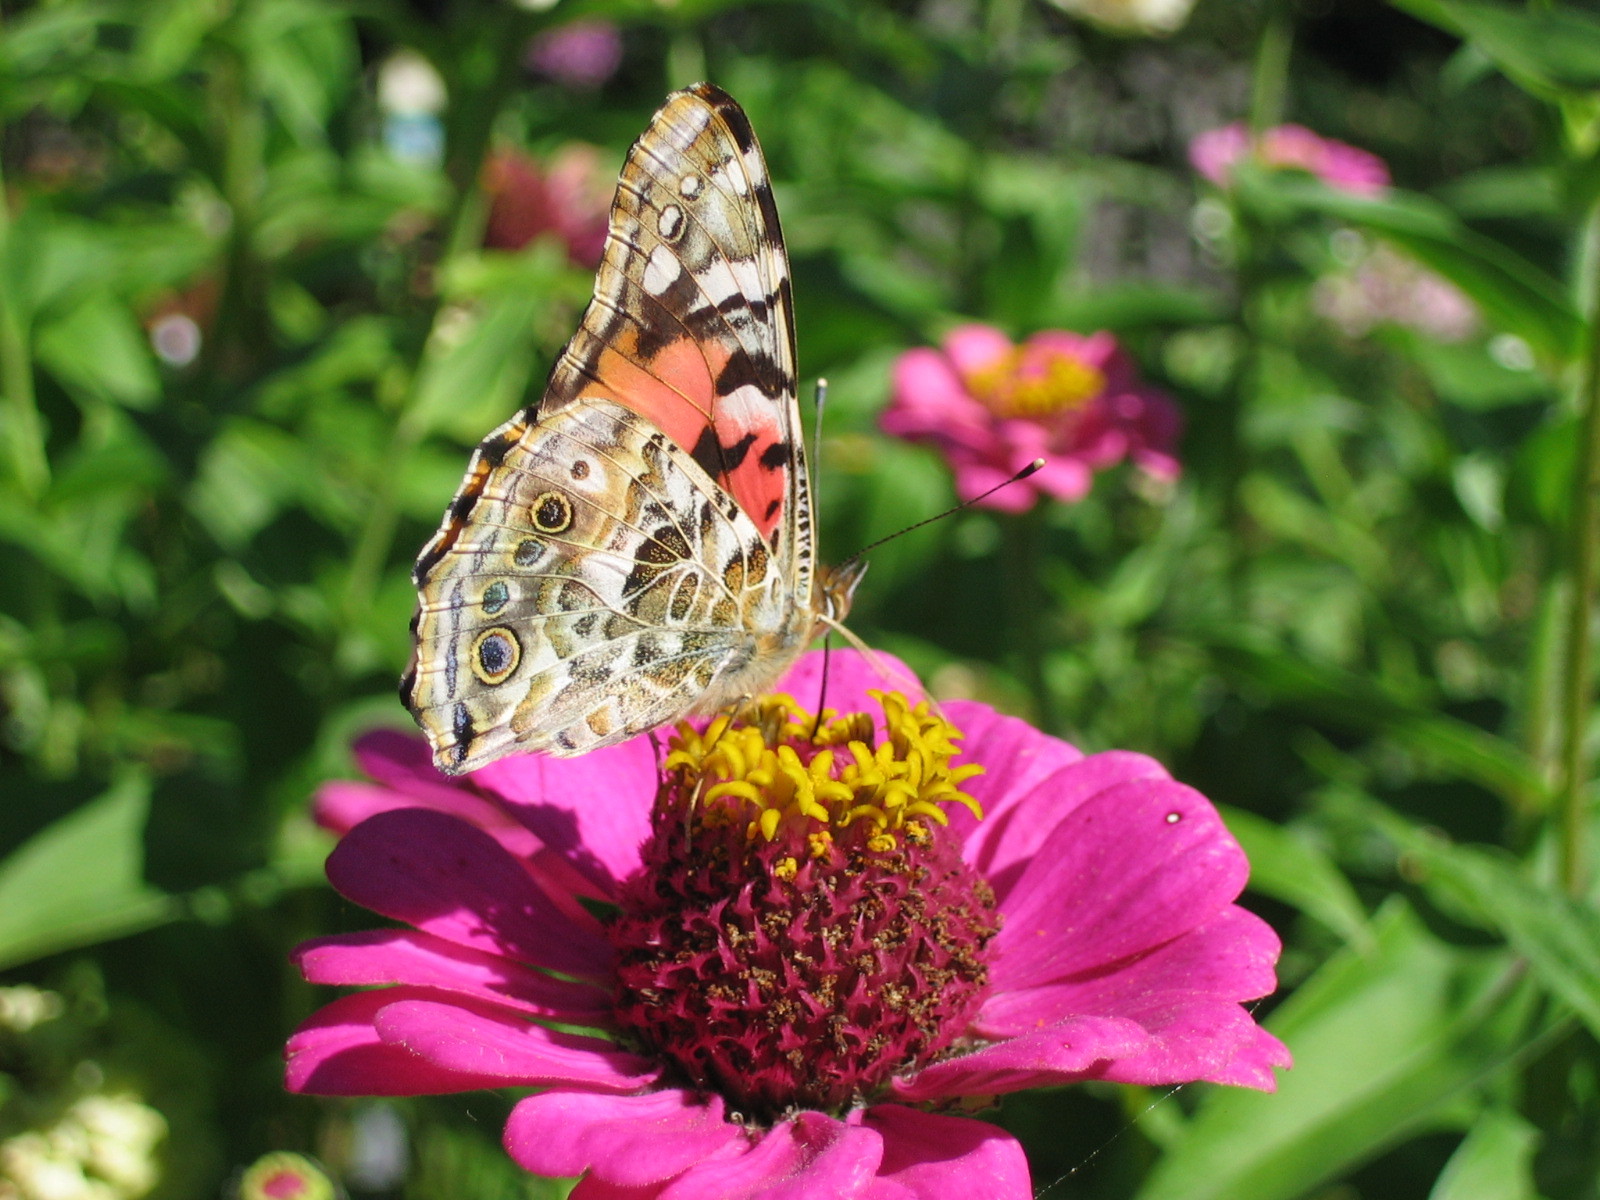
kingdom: Animalia
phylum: Arthropoda
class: Insecta
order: Lepidoptera
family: Nymphalidae
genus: Vanessa
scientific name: Vanessa cardui
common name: Painted lady
